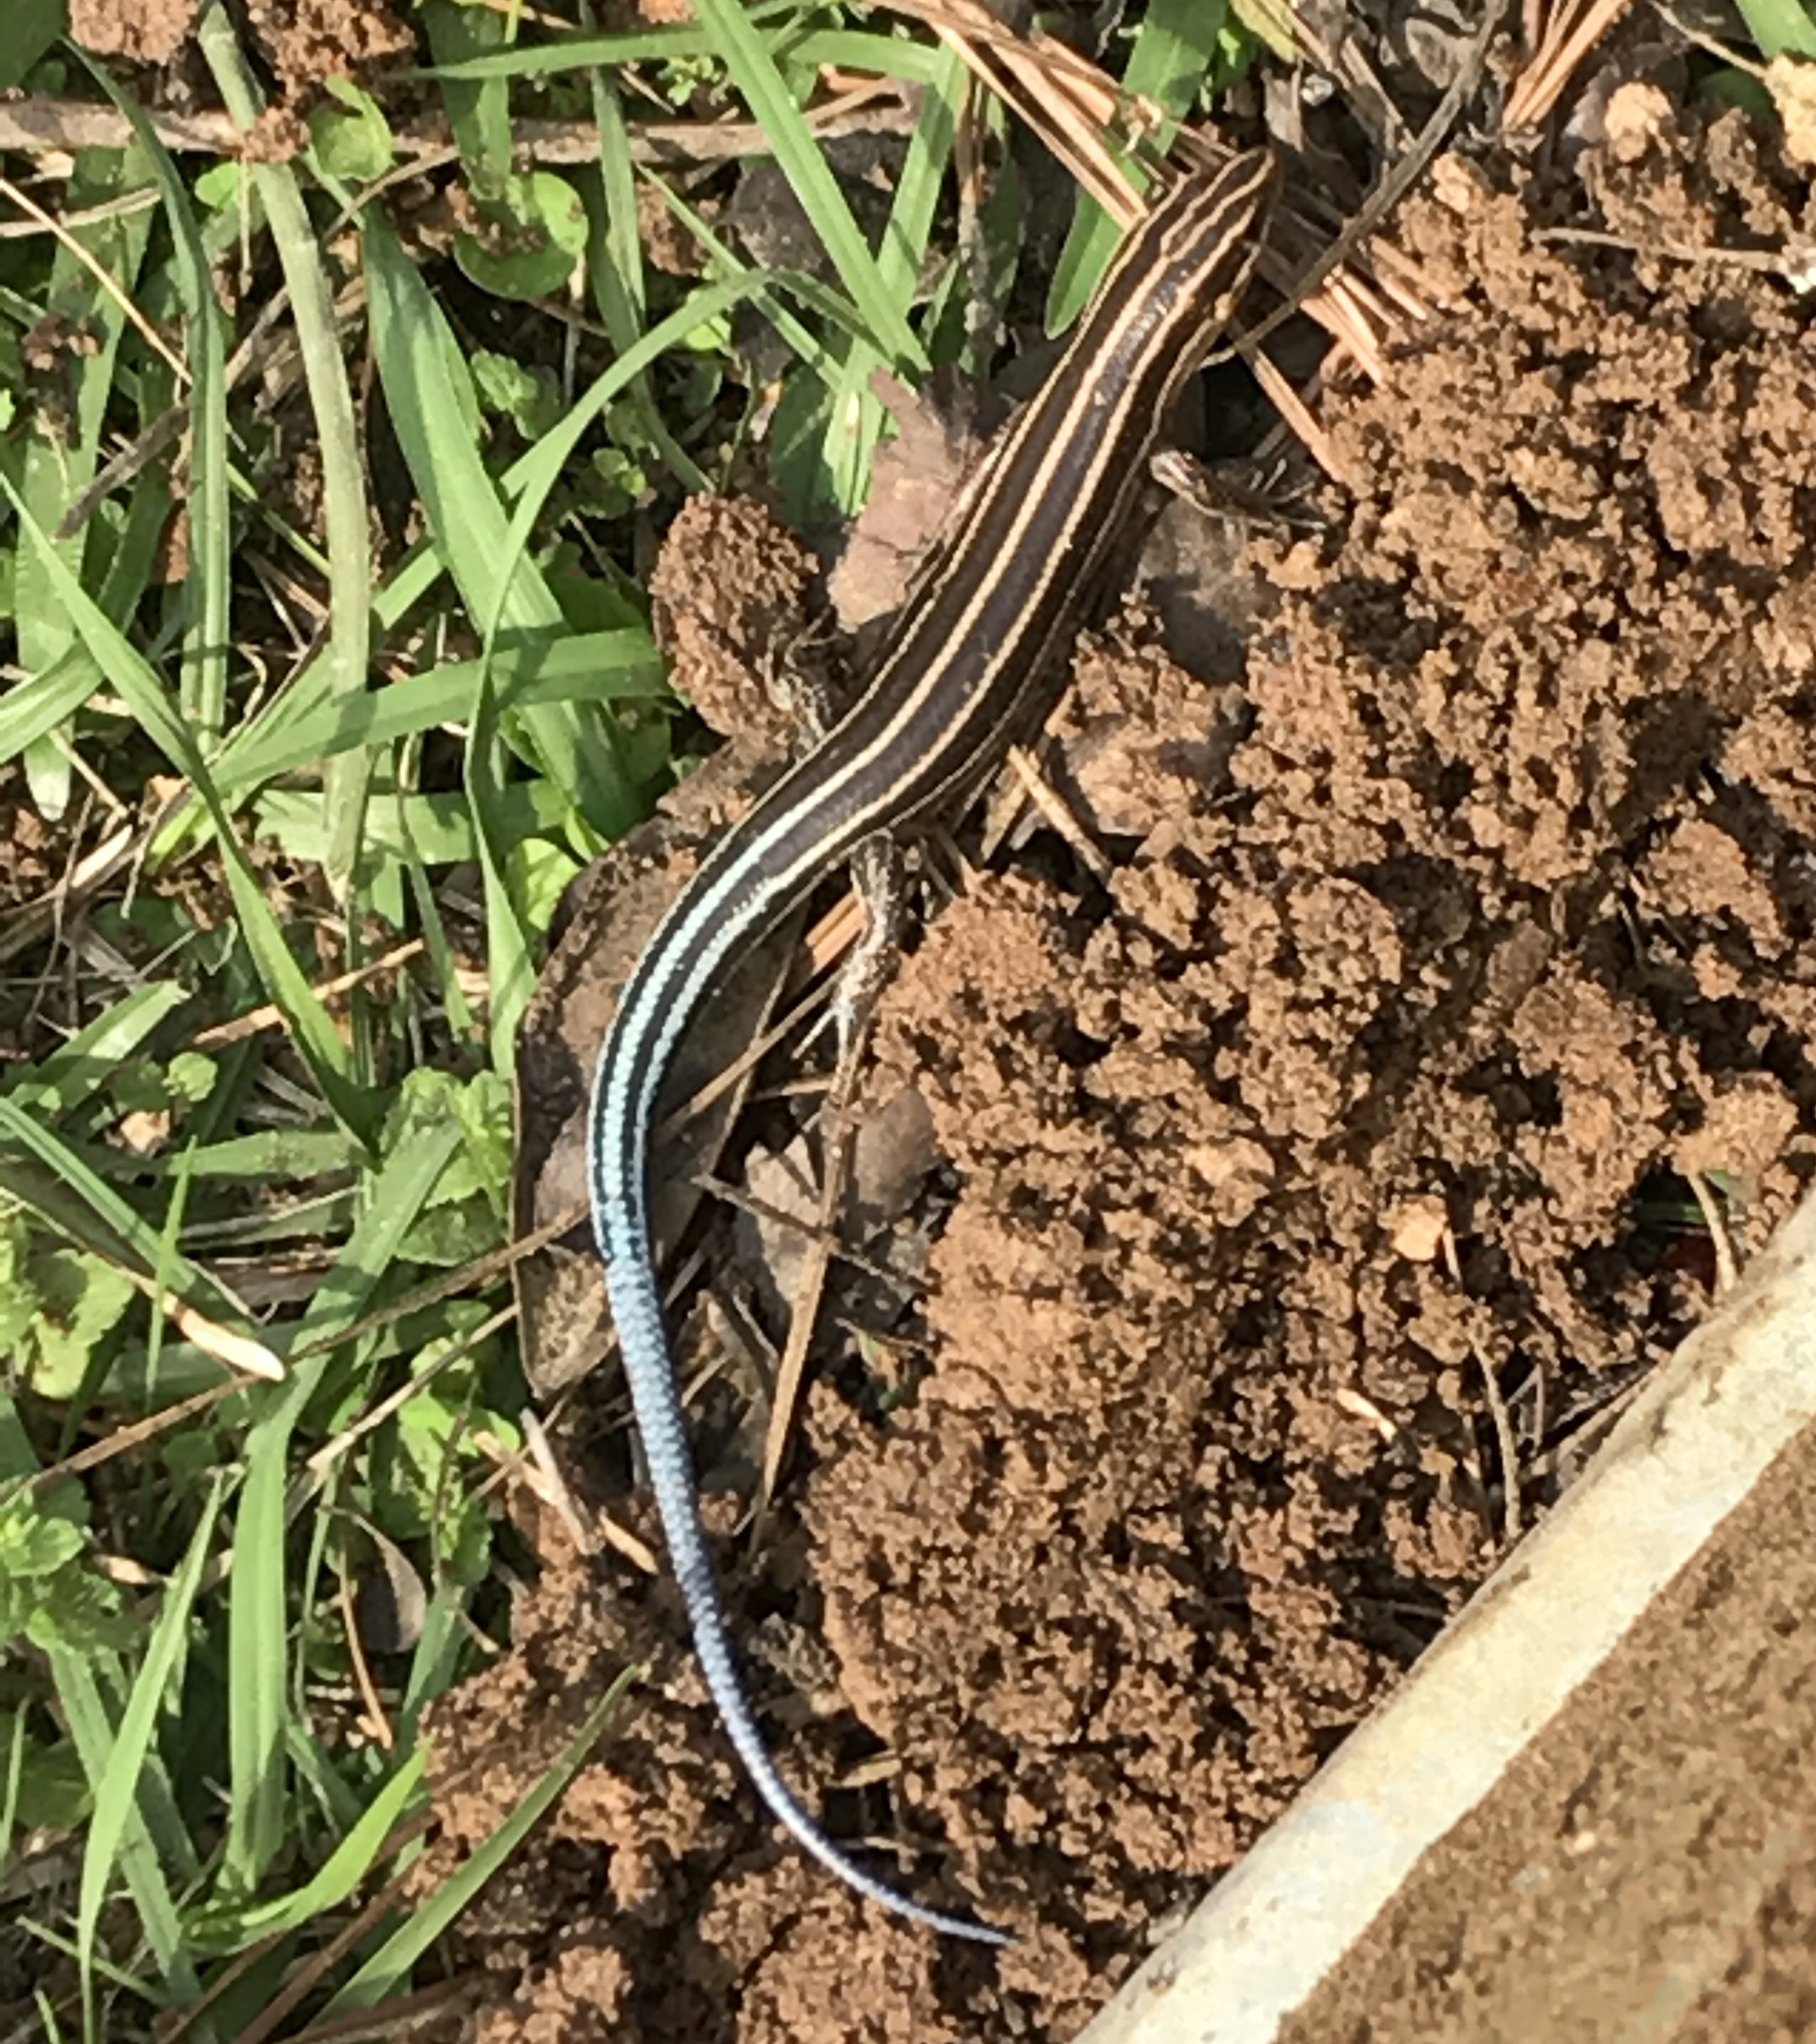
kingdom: Animalia
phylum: Chordata
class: Squamata
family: Scincidae
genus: Plestiodon
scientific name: Plestiodon fasciatus
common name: Five-lined skink
